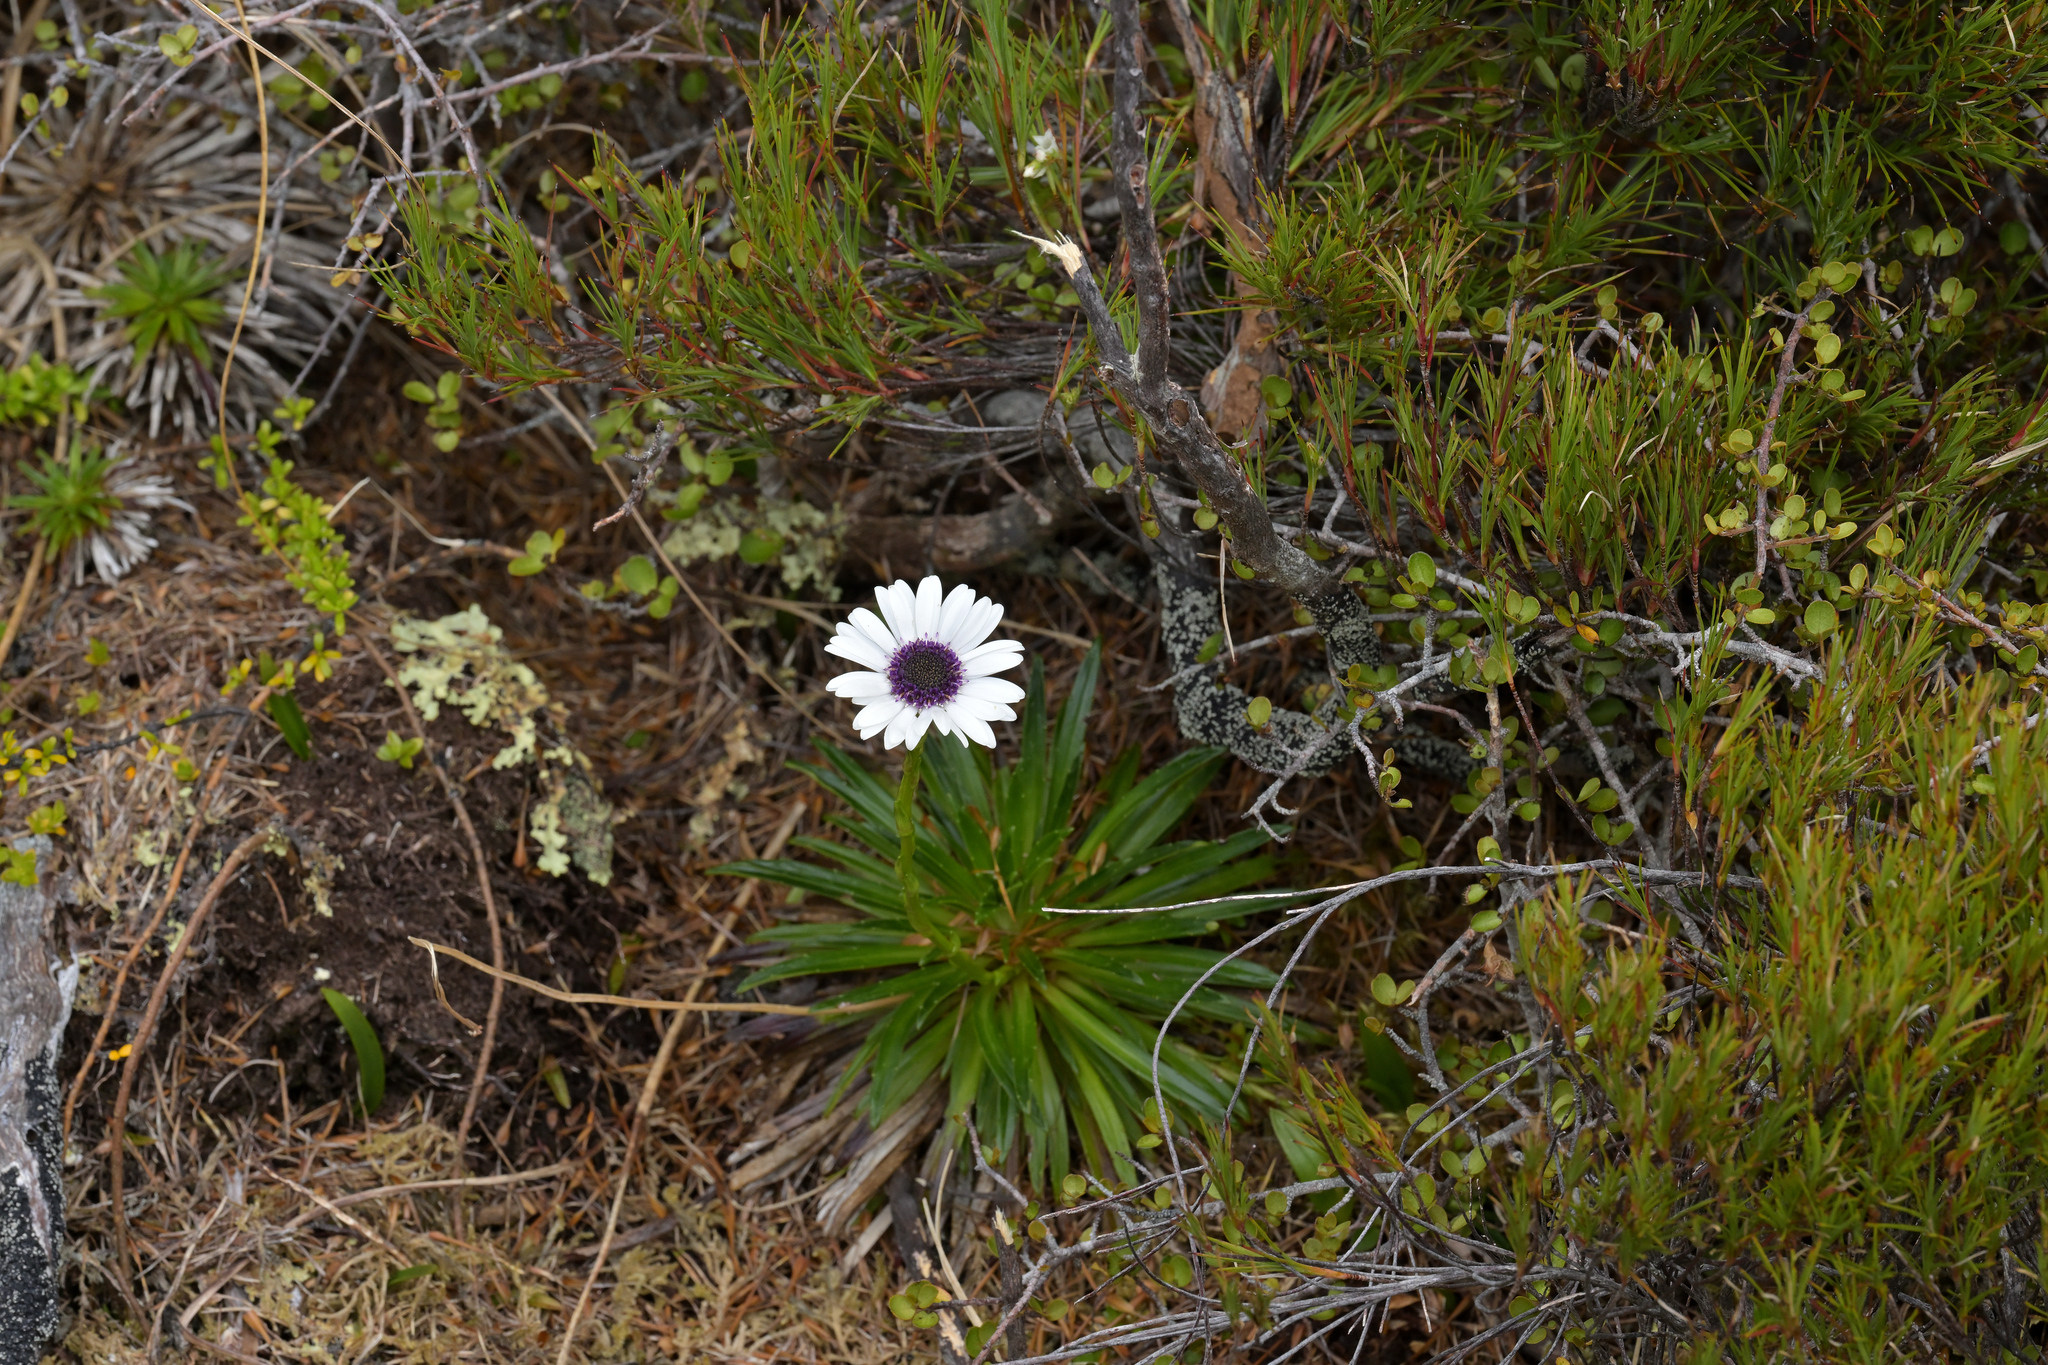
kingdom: Plantae
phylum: Tracheophyta
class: Magnoliopsida
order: Asterales
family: Asteraceae
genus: Damnamenia
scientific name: Damnamenia vernicosa
